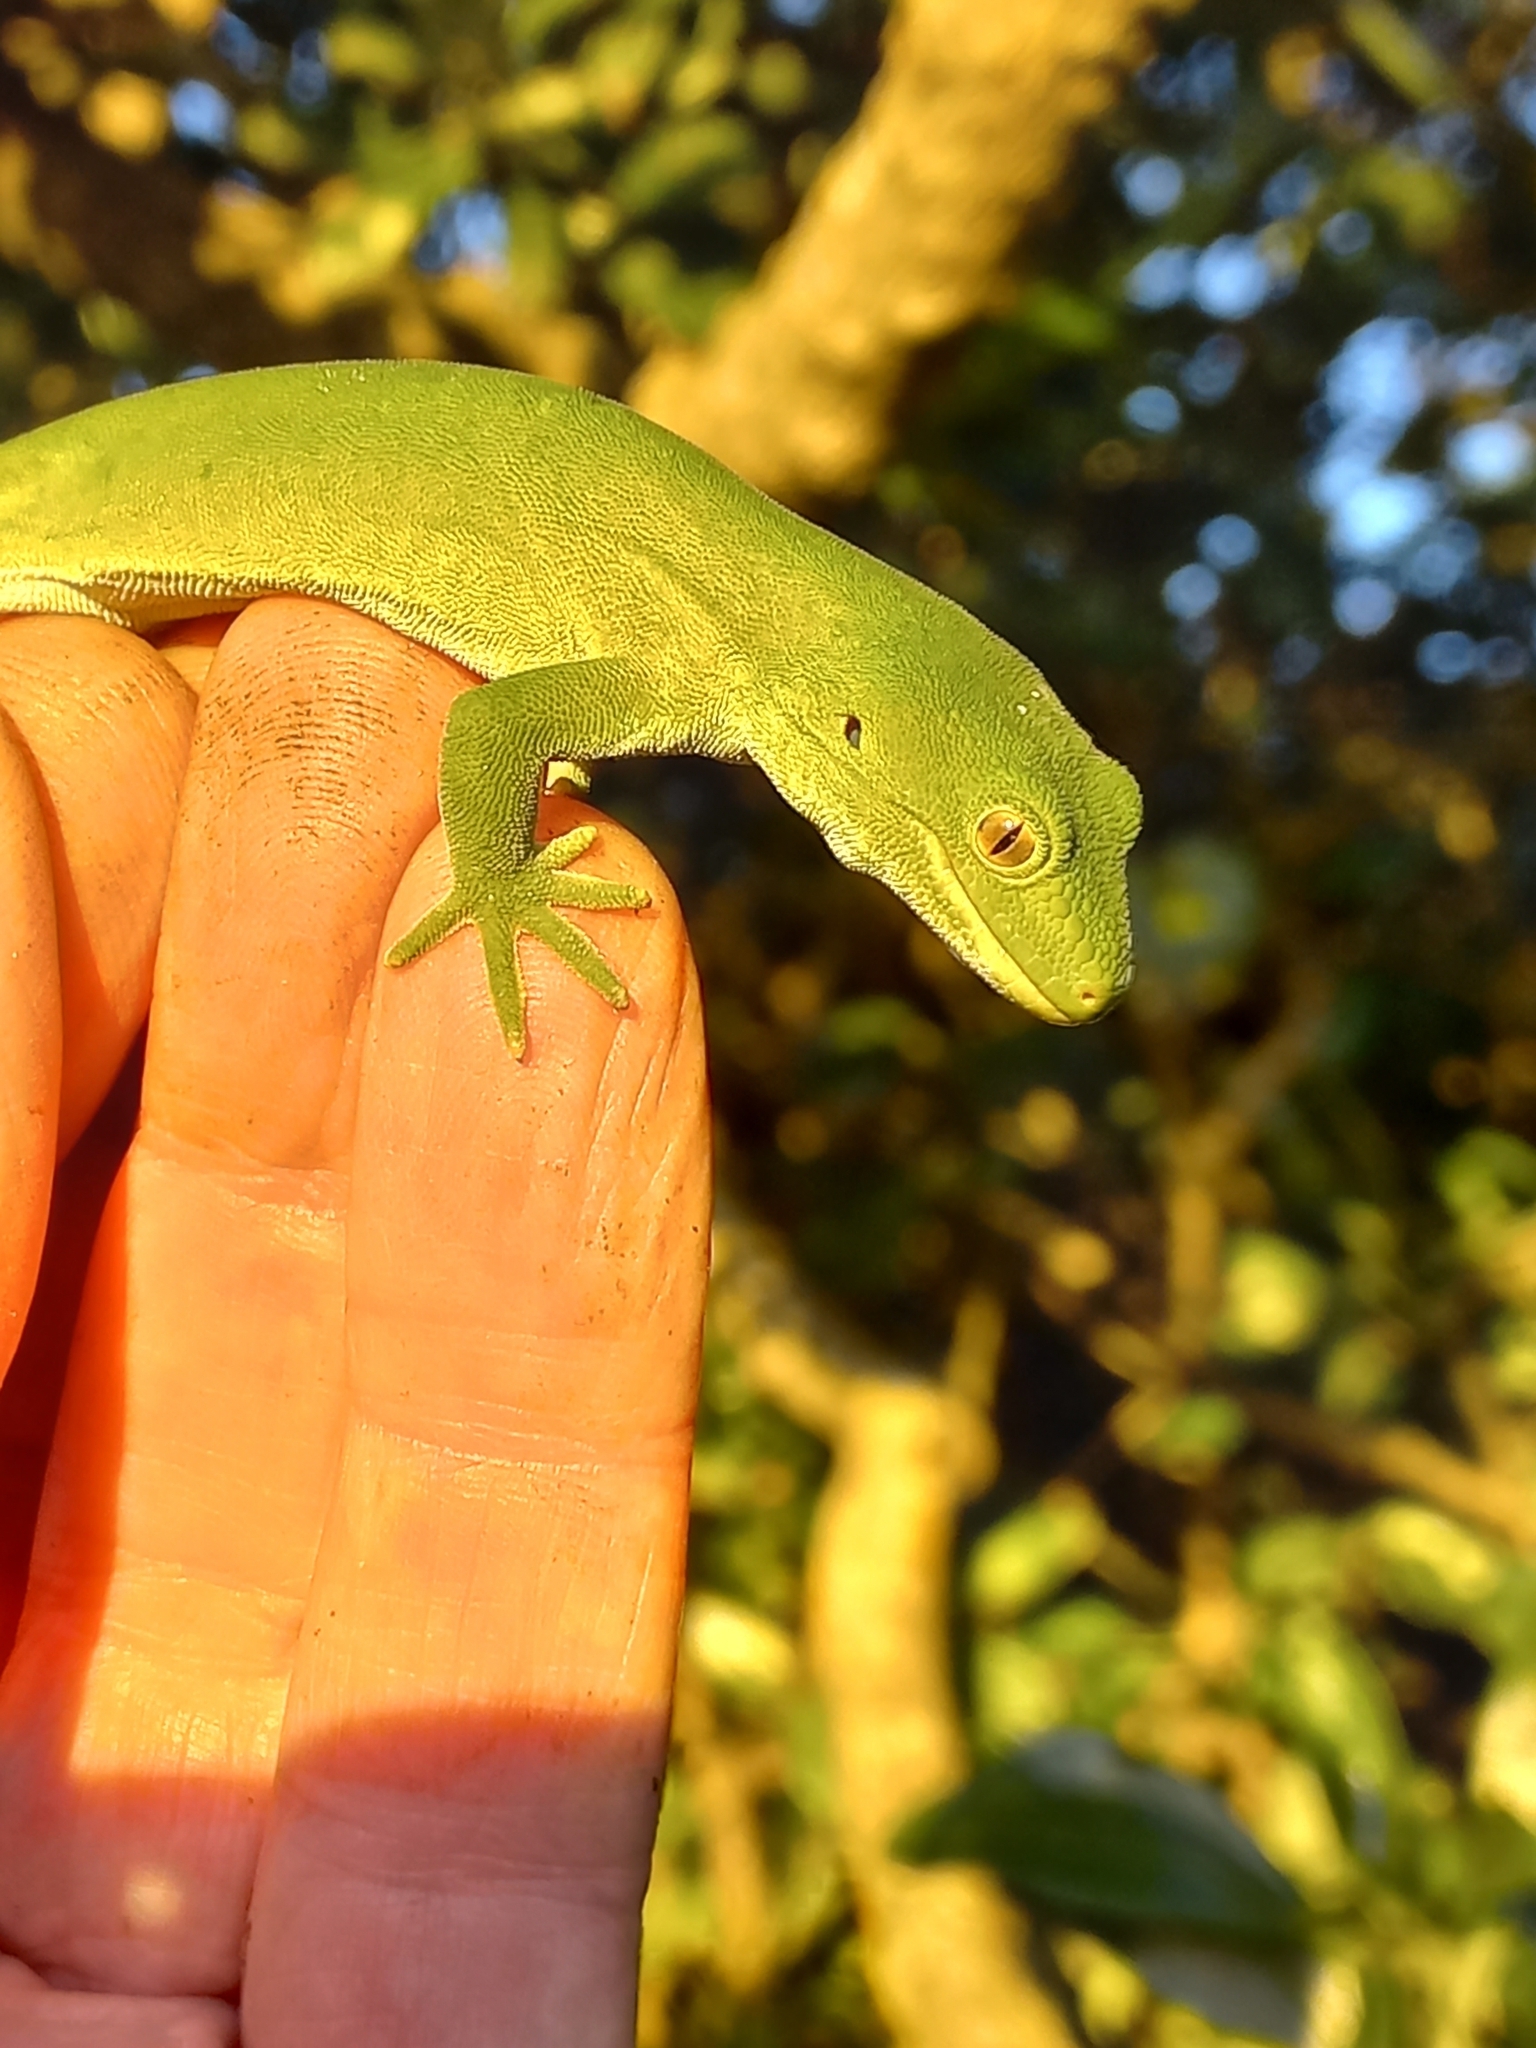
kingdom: Animalia
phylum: Chordata
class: Squamata
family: Diplodactylidae
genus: Naultinus
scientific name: Naultinus manukanus
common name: Marlborough green gecko
